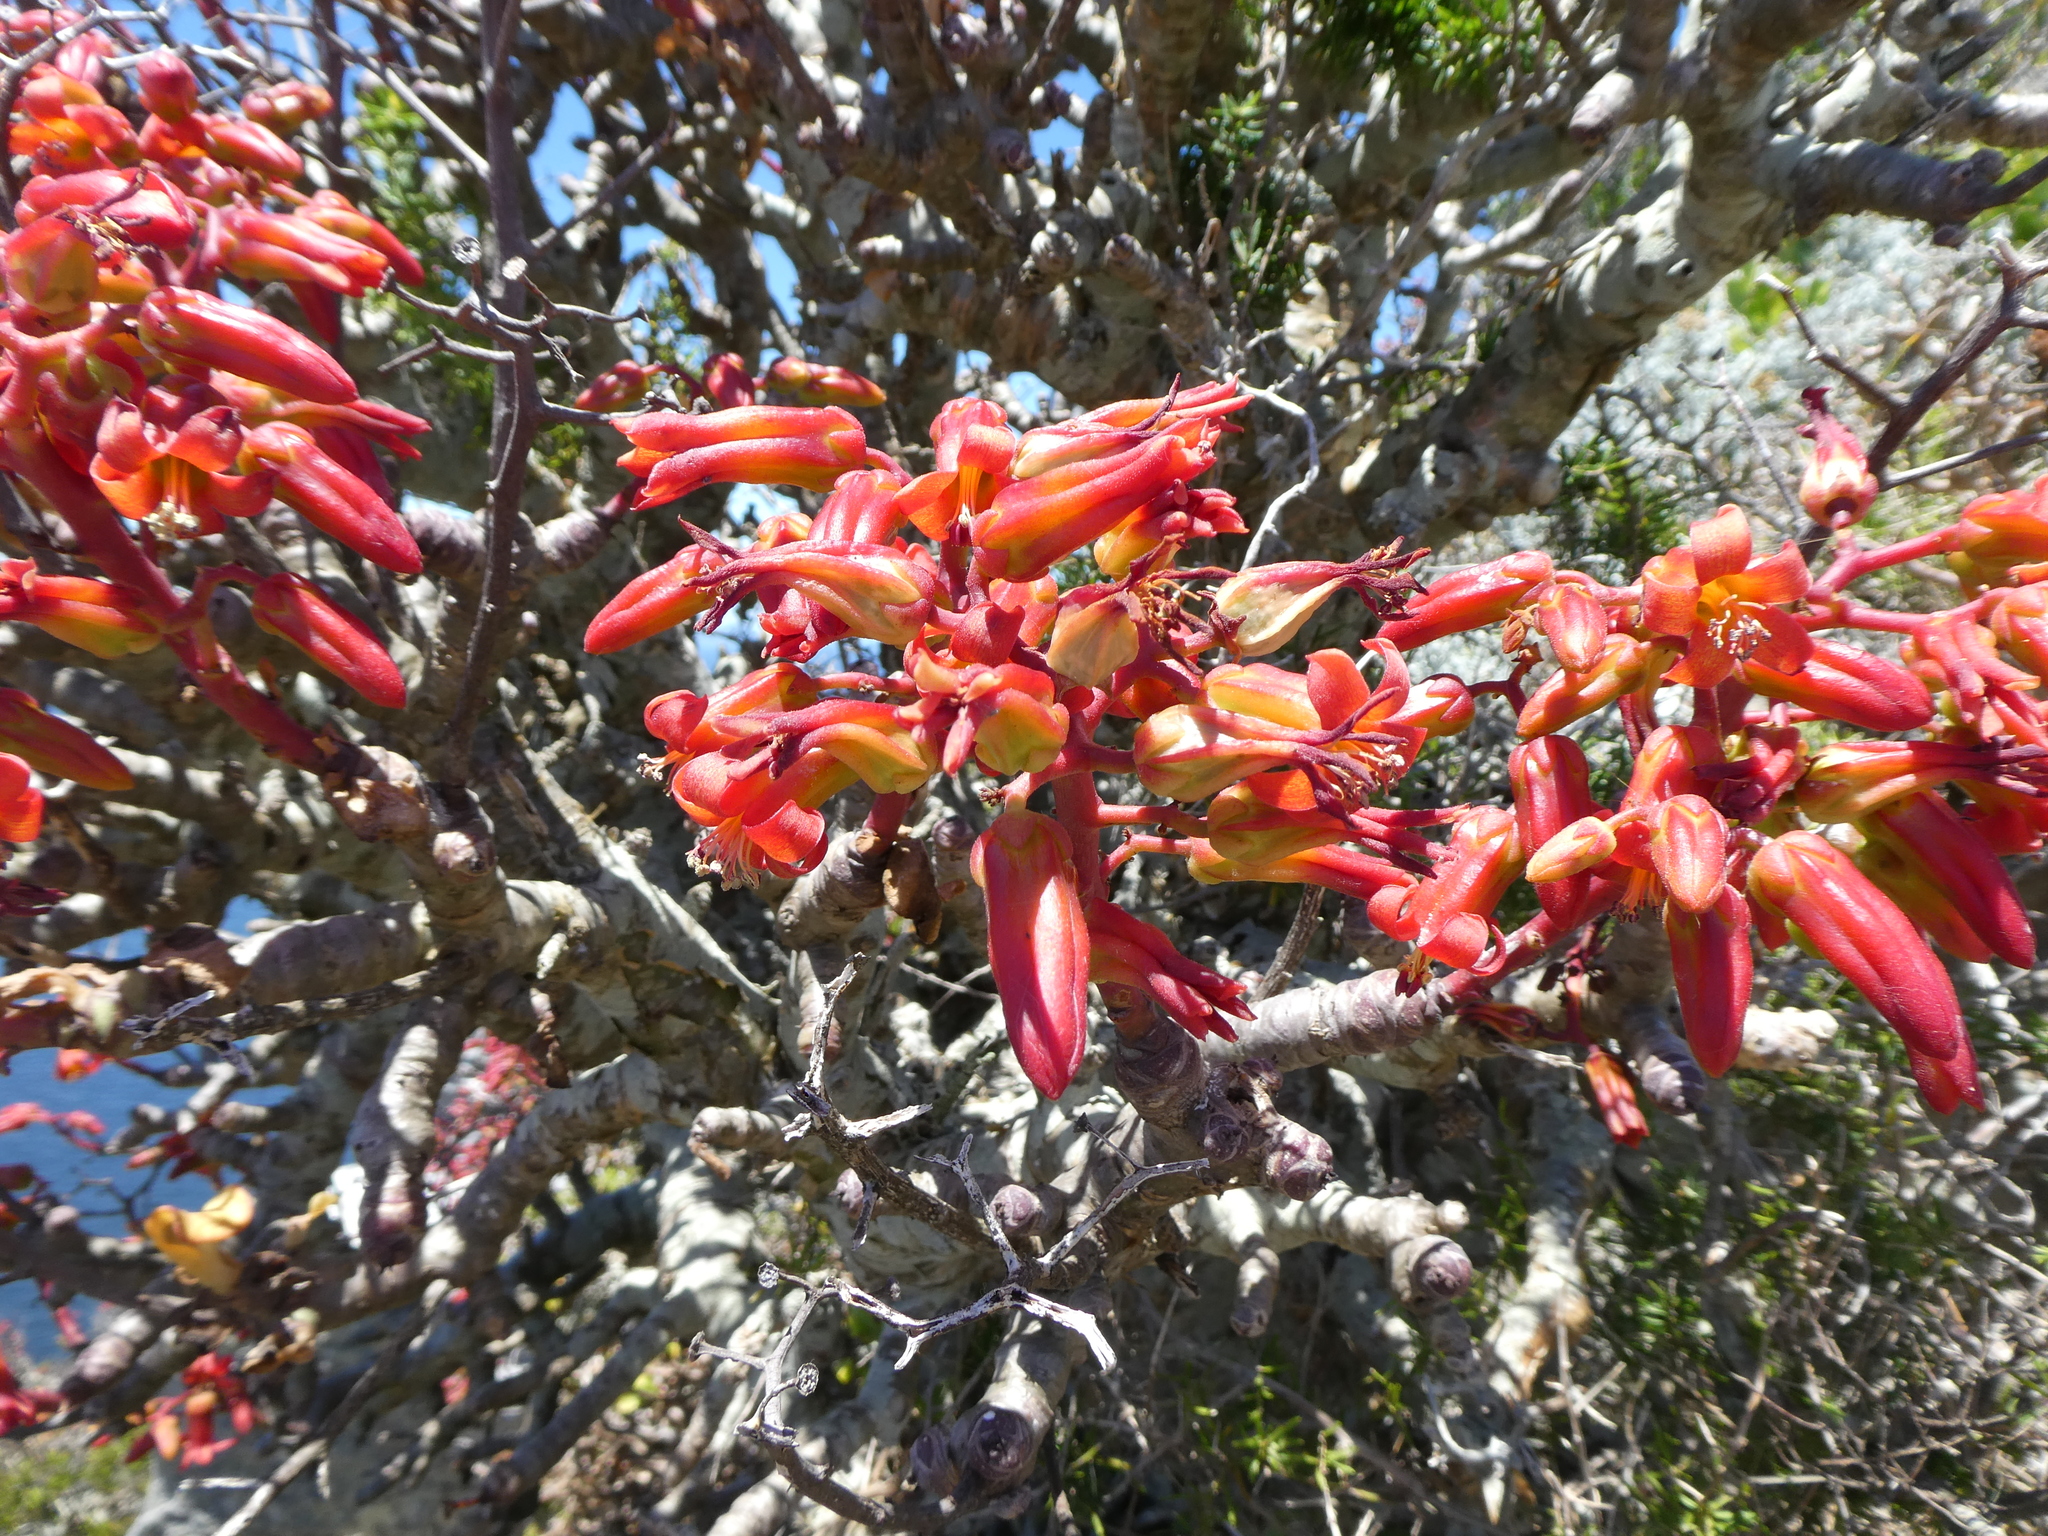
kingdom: Plantae
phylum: Tracheophyta
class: Magnoliopsida
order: Saxifragales
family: Crassulaceae
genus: Tylecodon
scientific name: Tylecodon paniculatus
